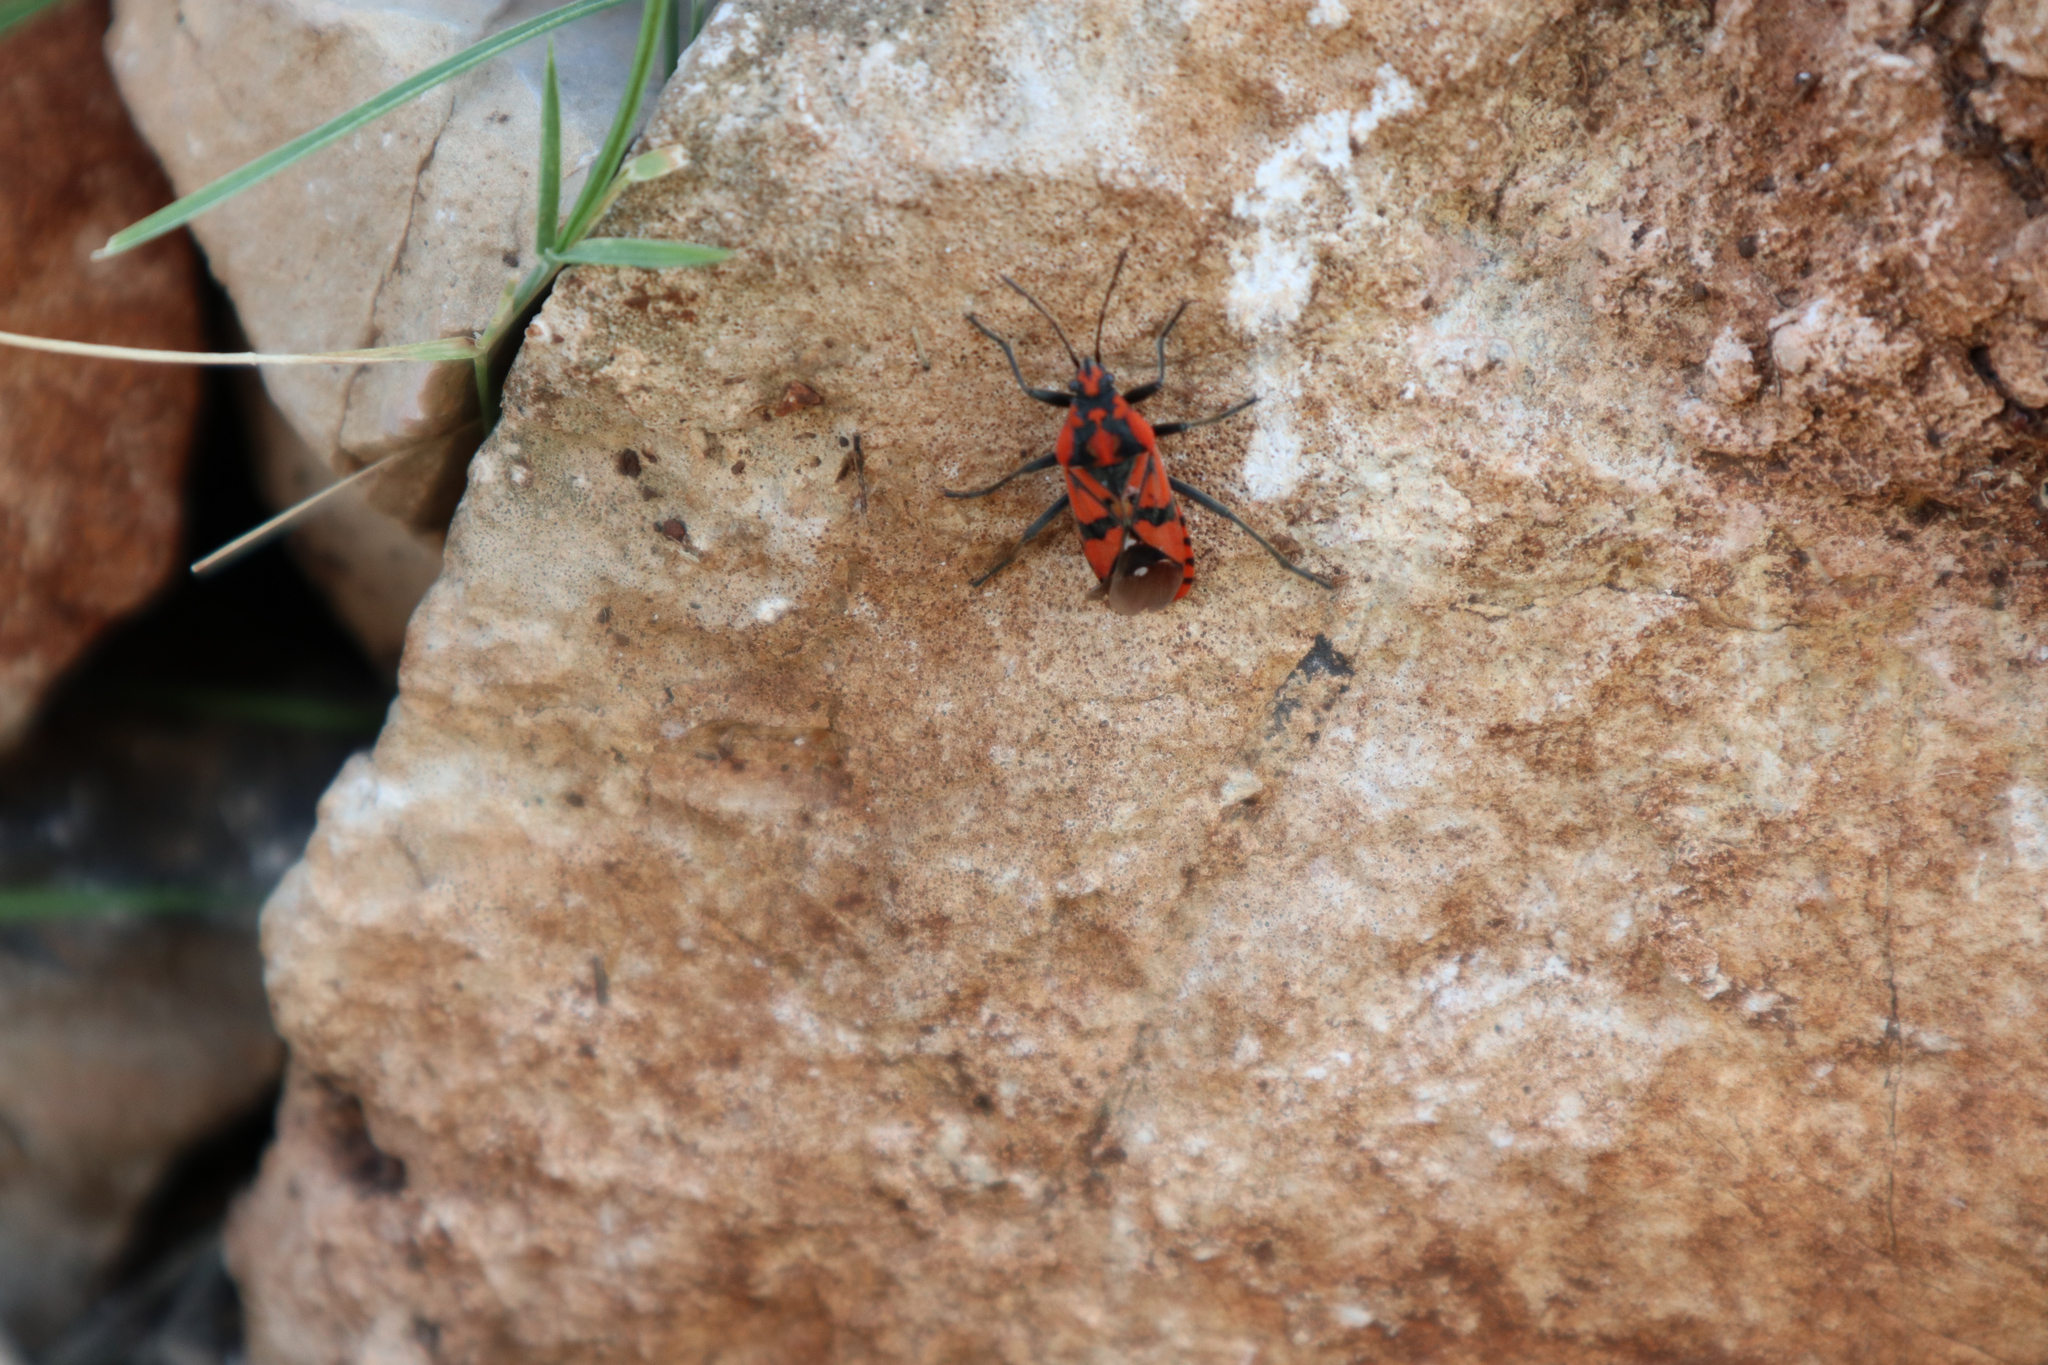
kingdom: Animalia
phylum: Arthropoda
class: Insecta
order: Hemiptera
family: Lygaeidae
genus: Spilostethus
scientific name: Spilostethus pandurus
